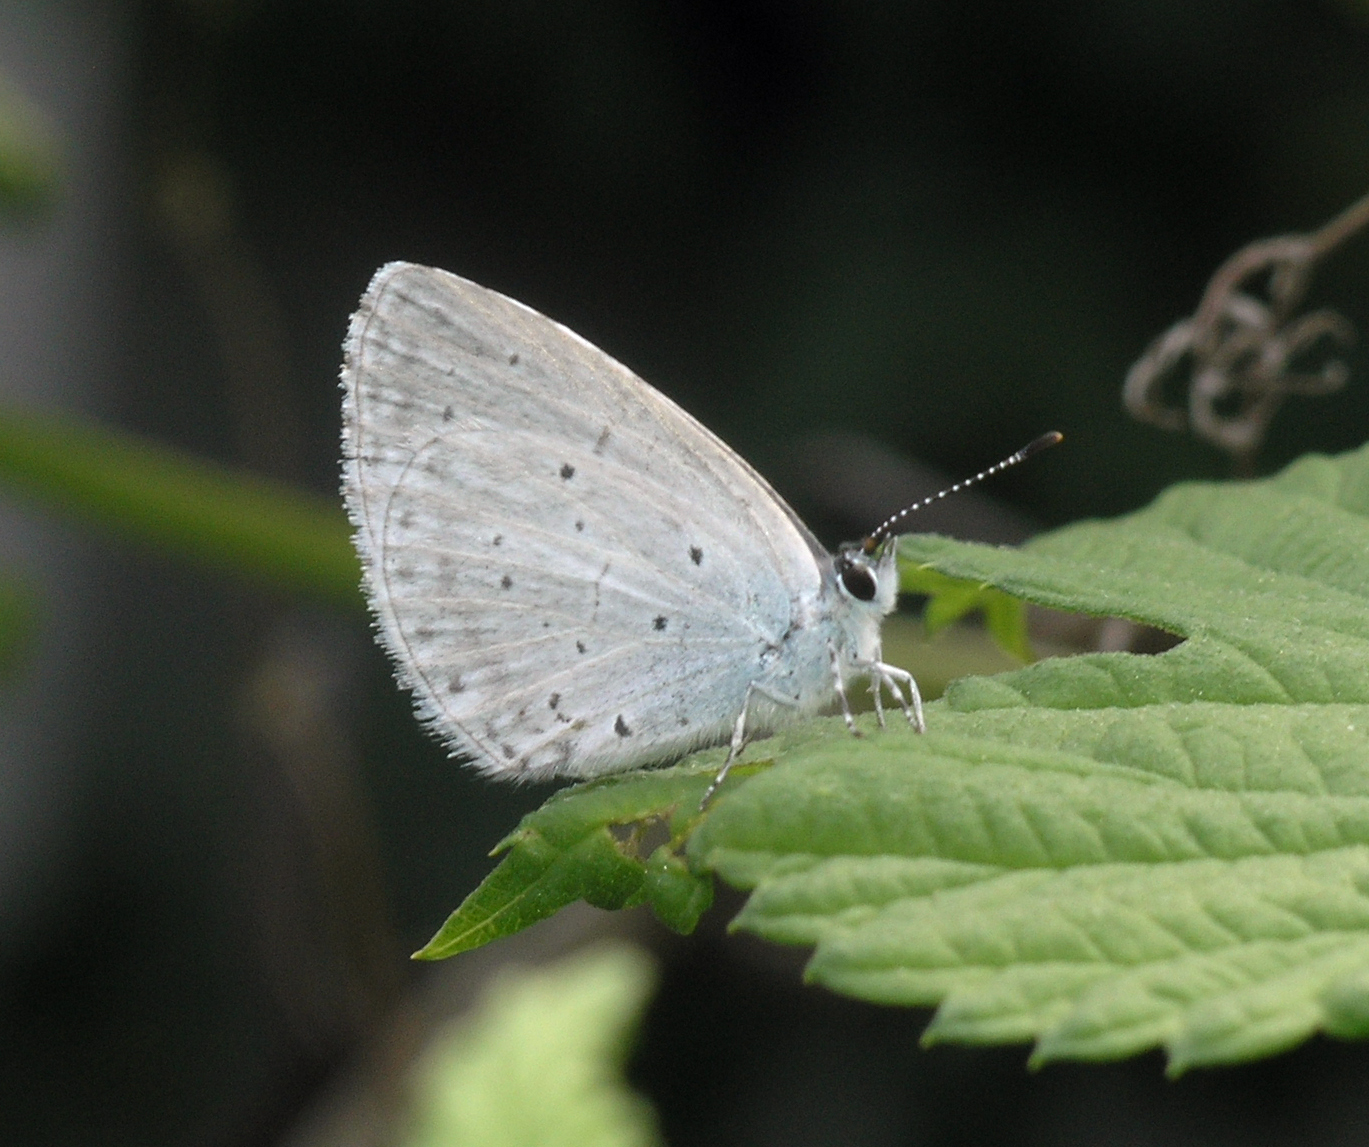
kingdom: Animalia
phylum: Arthropoda
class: Insecta
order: Lepidoptera
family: Lycaenidae
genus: Celastrina
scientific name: Celastrina argiolus
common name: Holly blue
